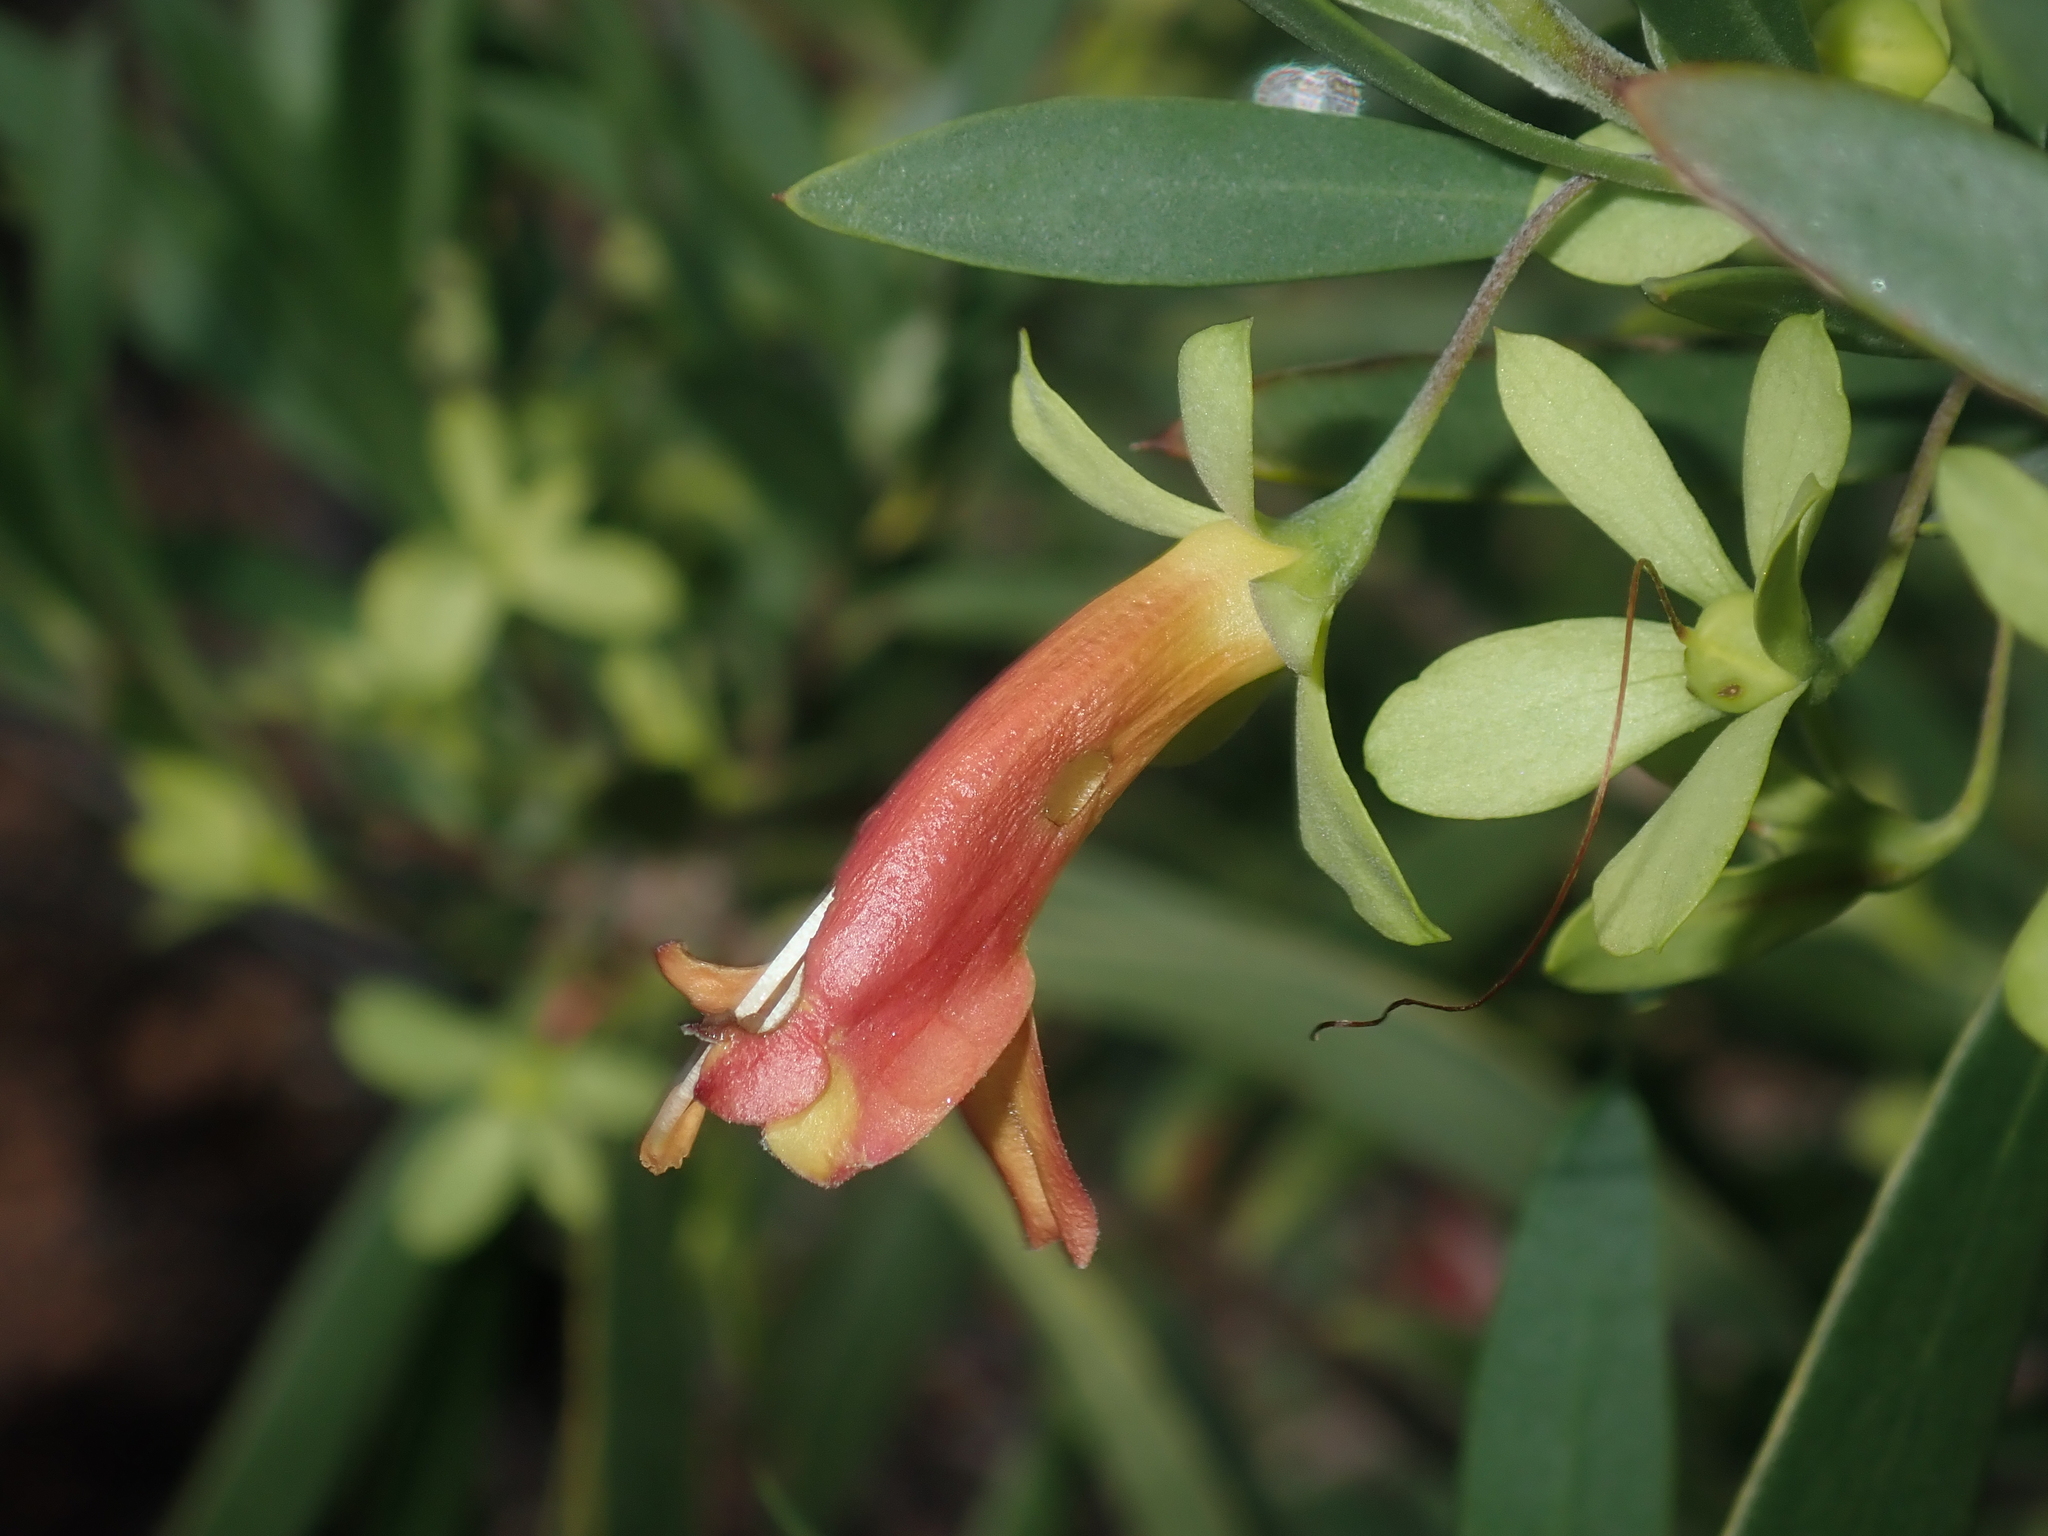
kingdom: Plantae
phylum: Tracheophyta
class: Magnoliopsida
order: Lamiales
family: Scrophulariaceae
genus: Eremophila
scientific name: Eremophila oldfieldii
